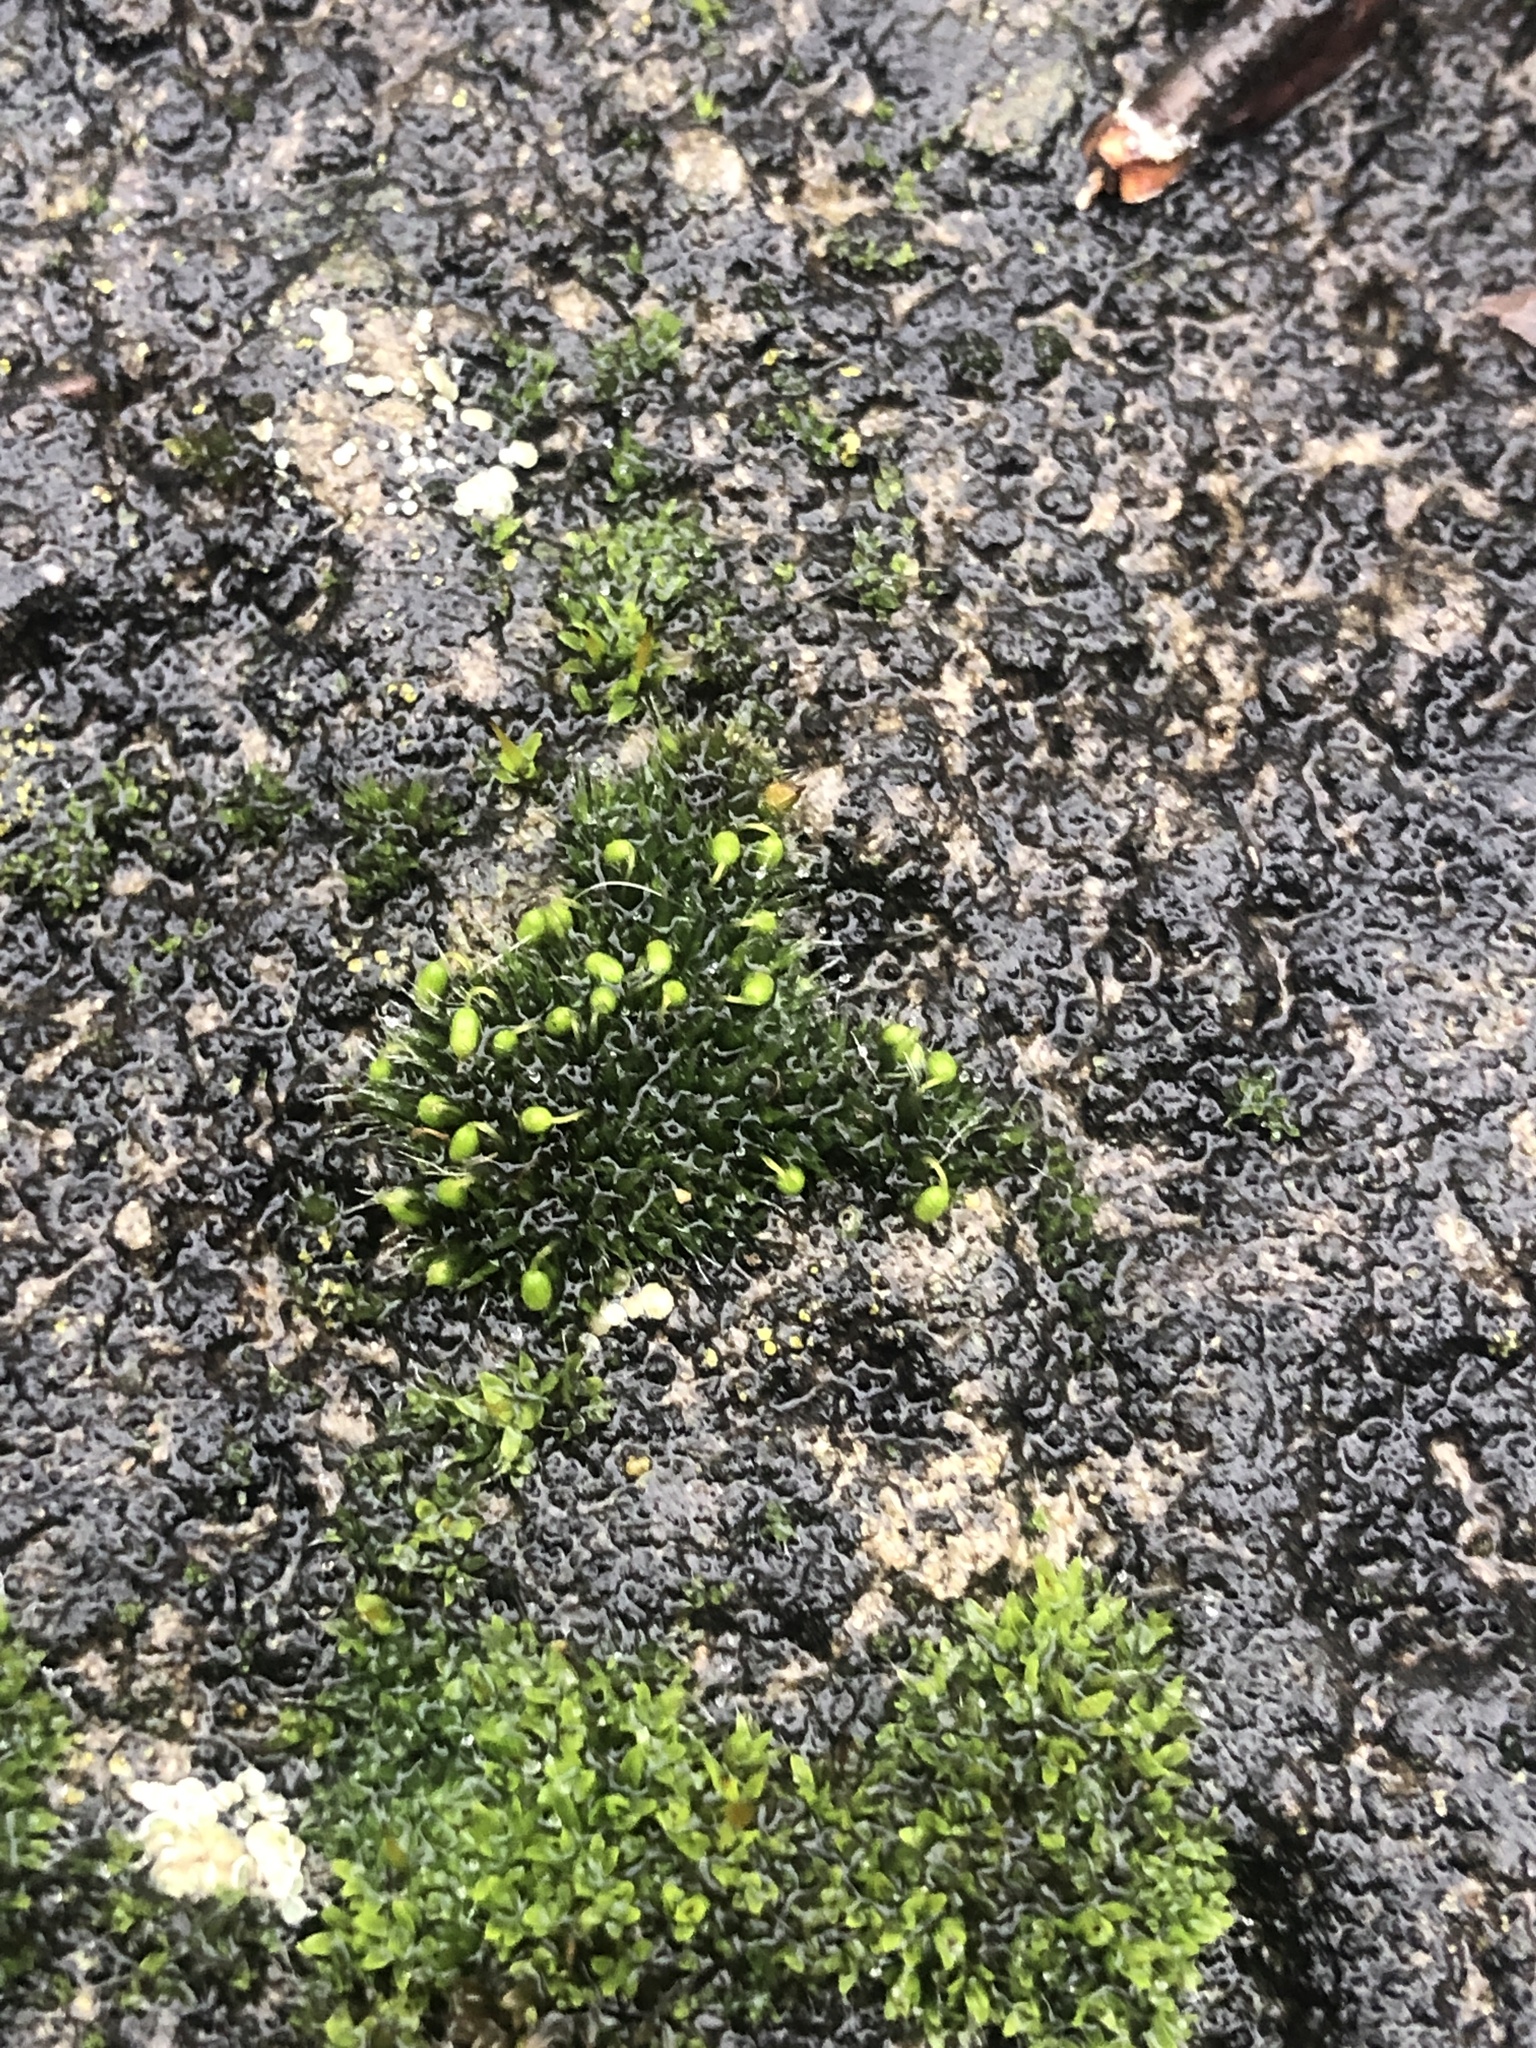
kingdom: Plantae
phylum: Bryophyta
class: Bryopsida
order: Grimmiales
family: Grimmiaceae
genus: Grimmia
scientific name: Grimmia pulvinata
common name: Grey-cushioned grimmia
